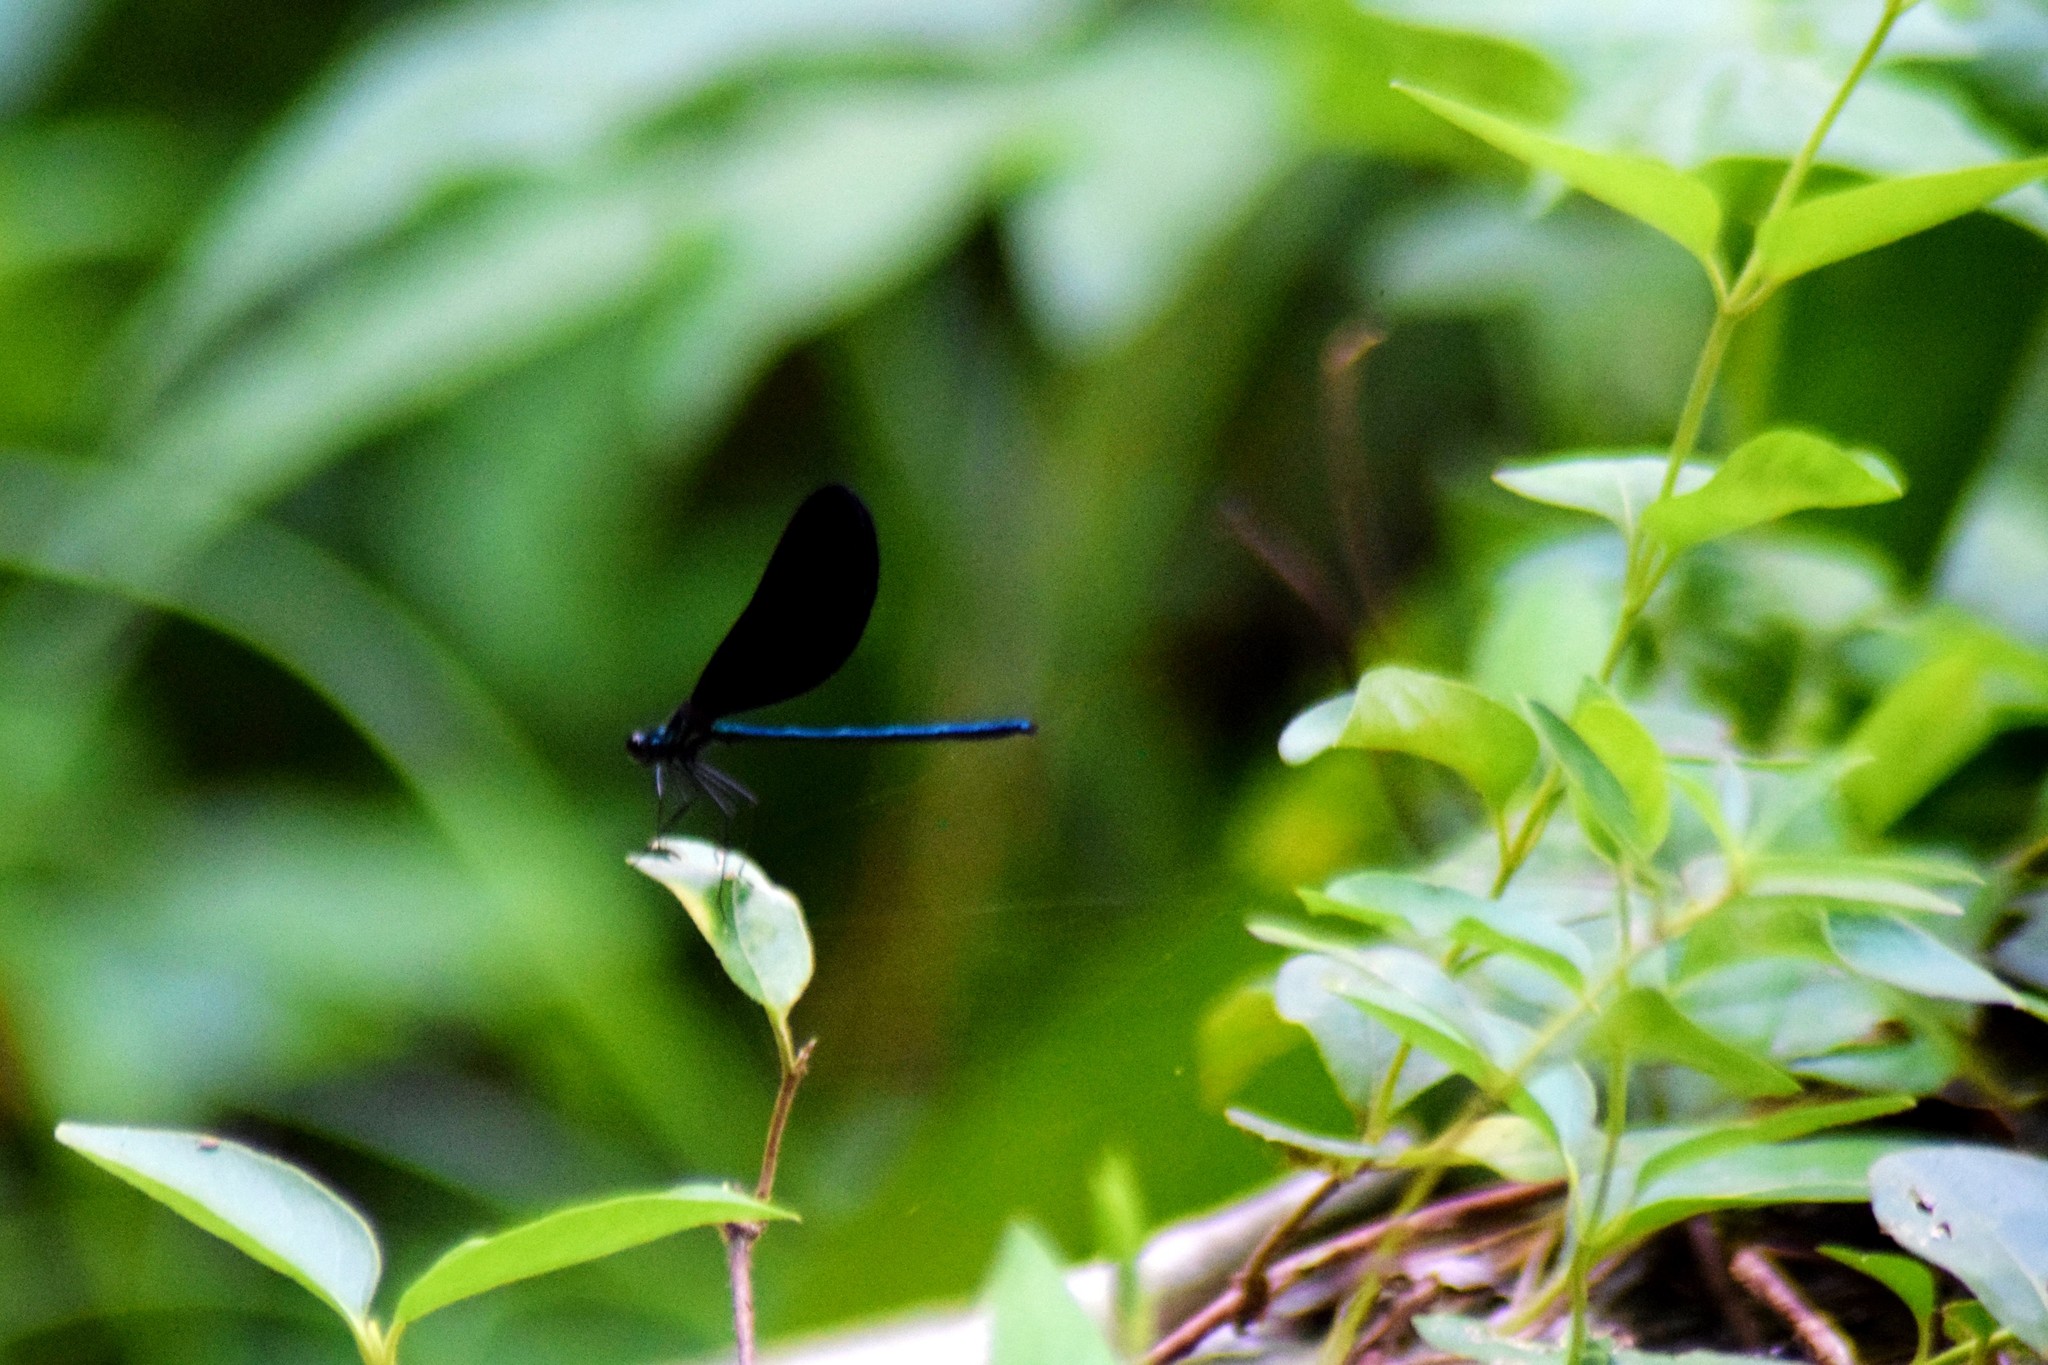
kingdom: Animalia
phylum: Arthropoda
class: Insecta
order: Odonata
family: Calopterygidae
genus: Calopteryx
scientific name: Calopteryx maculata
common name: Ebony jewelwing
